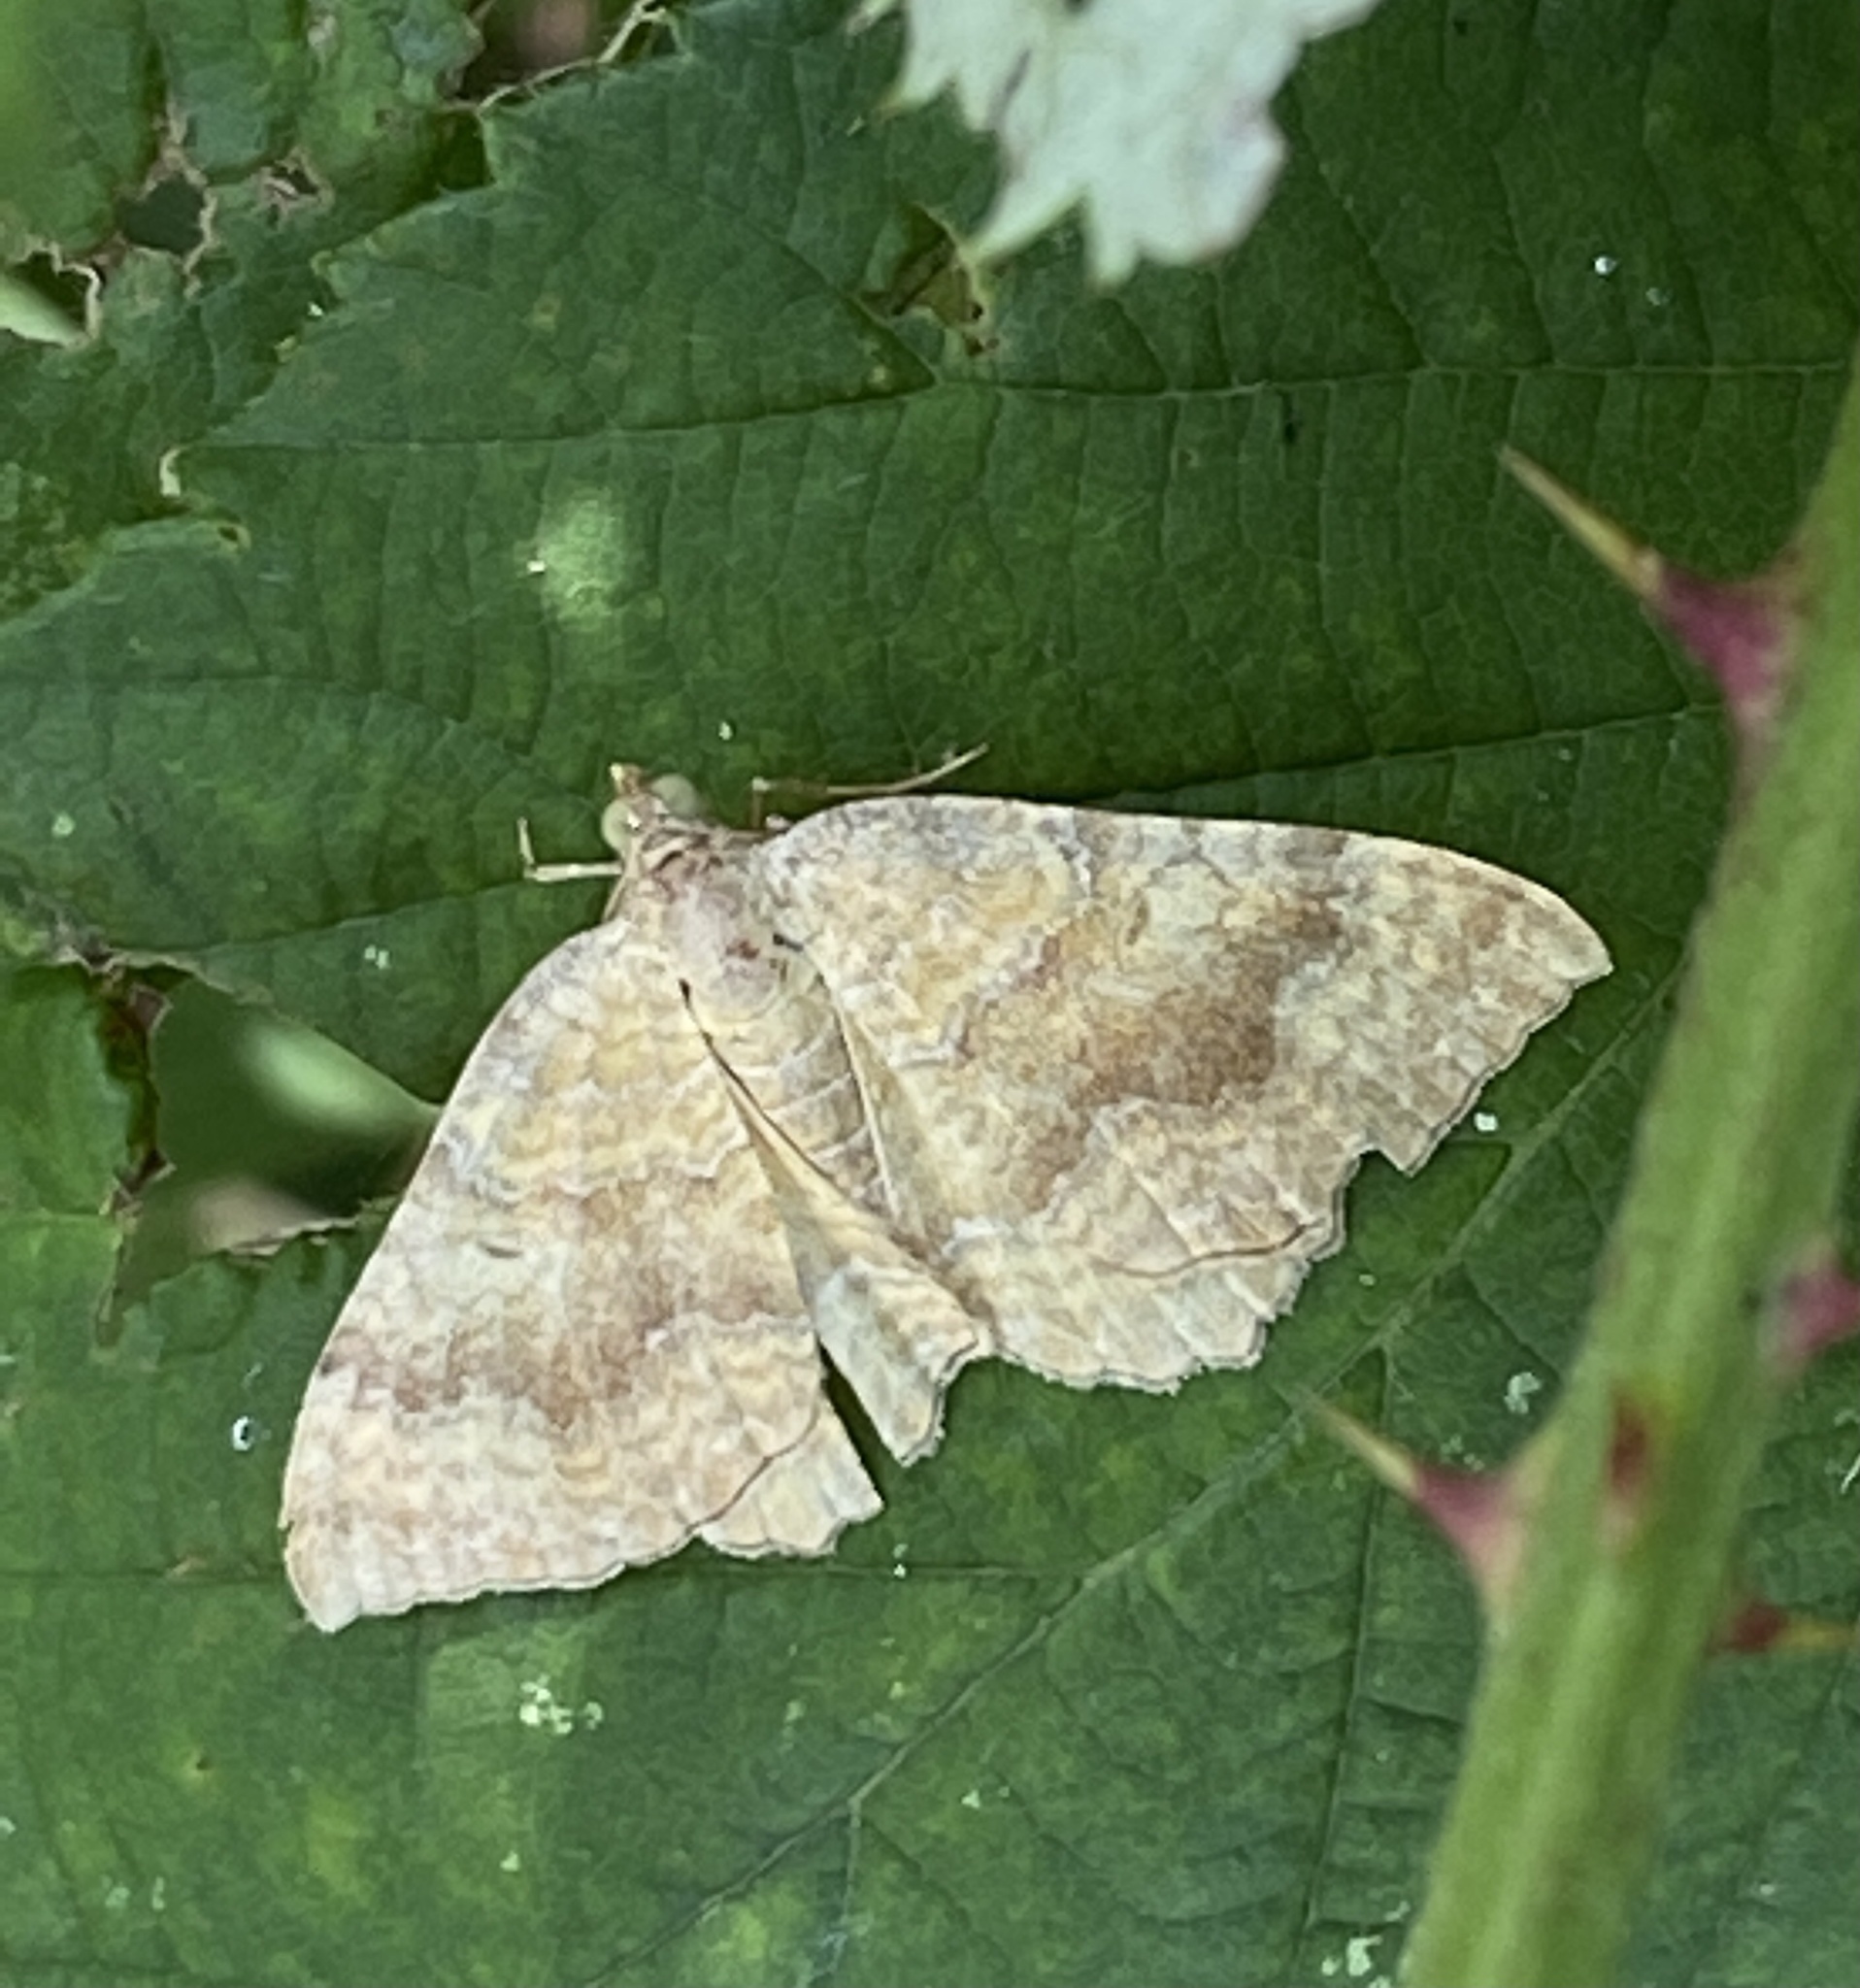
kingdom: Animalia
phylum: Arthropoda
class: Insecta
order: Lepidoptera
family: Geometridae
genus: Camptogramma
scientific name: Camptogramma bilineata
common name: Yellow shell
